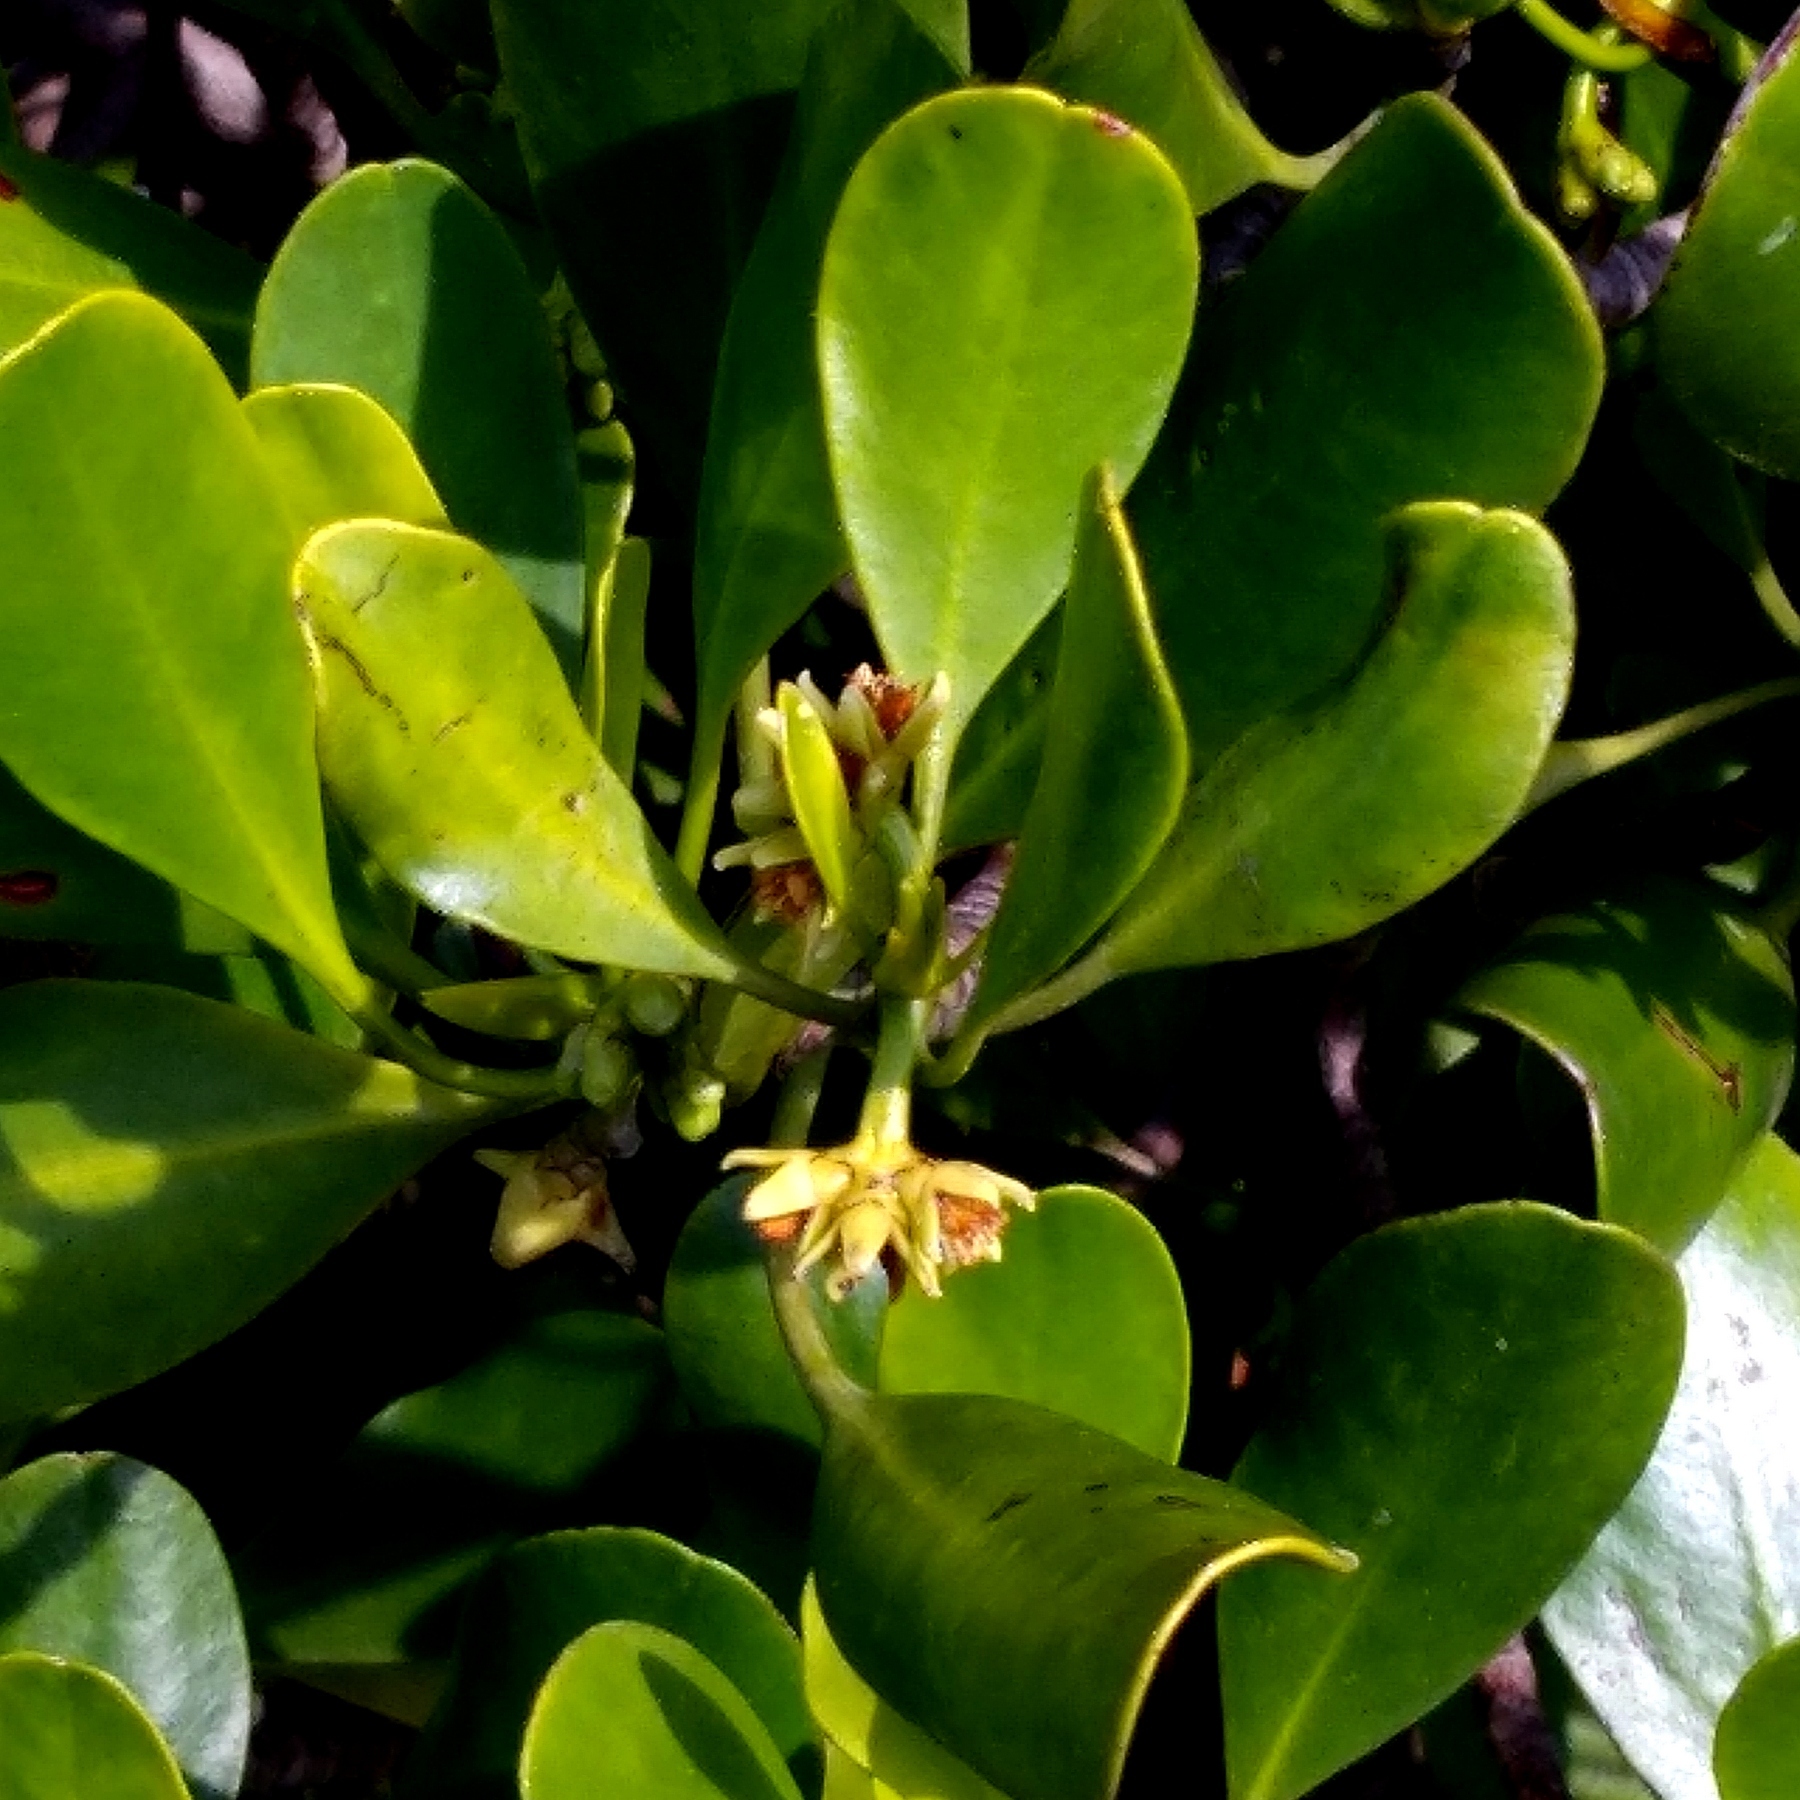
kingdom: Plantae
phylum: Tracheophyta
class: Magnoliopsida
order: Malpighiales
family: Rhizophoraceae
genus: Ceriops
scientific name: Ceriops tagal
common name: Spurred mangrove
